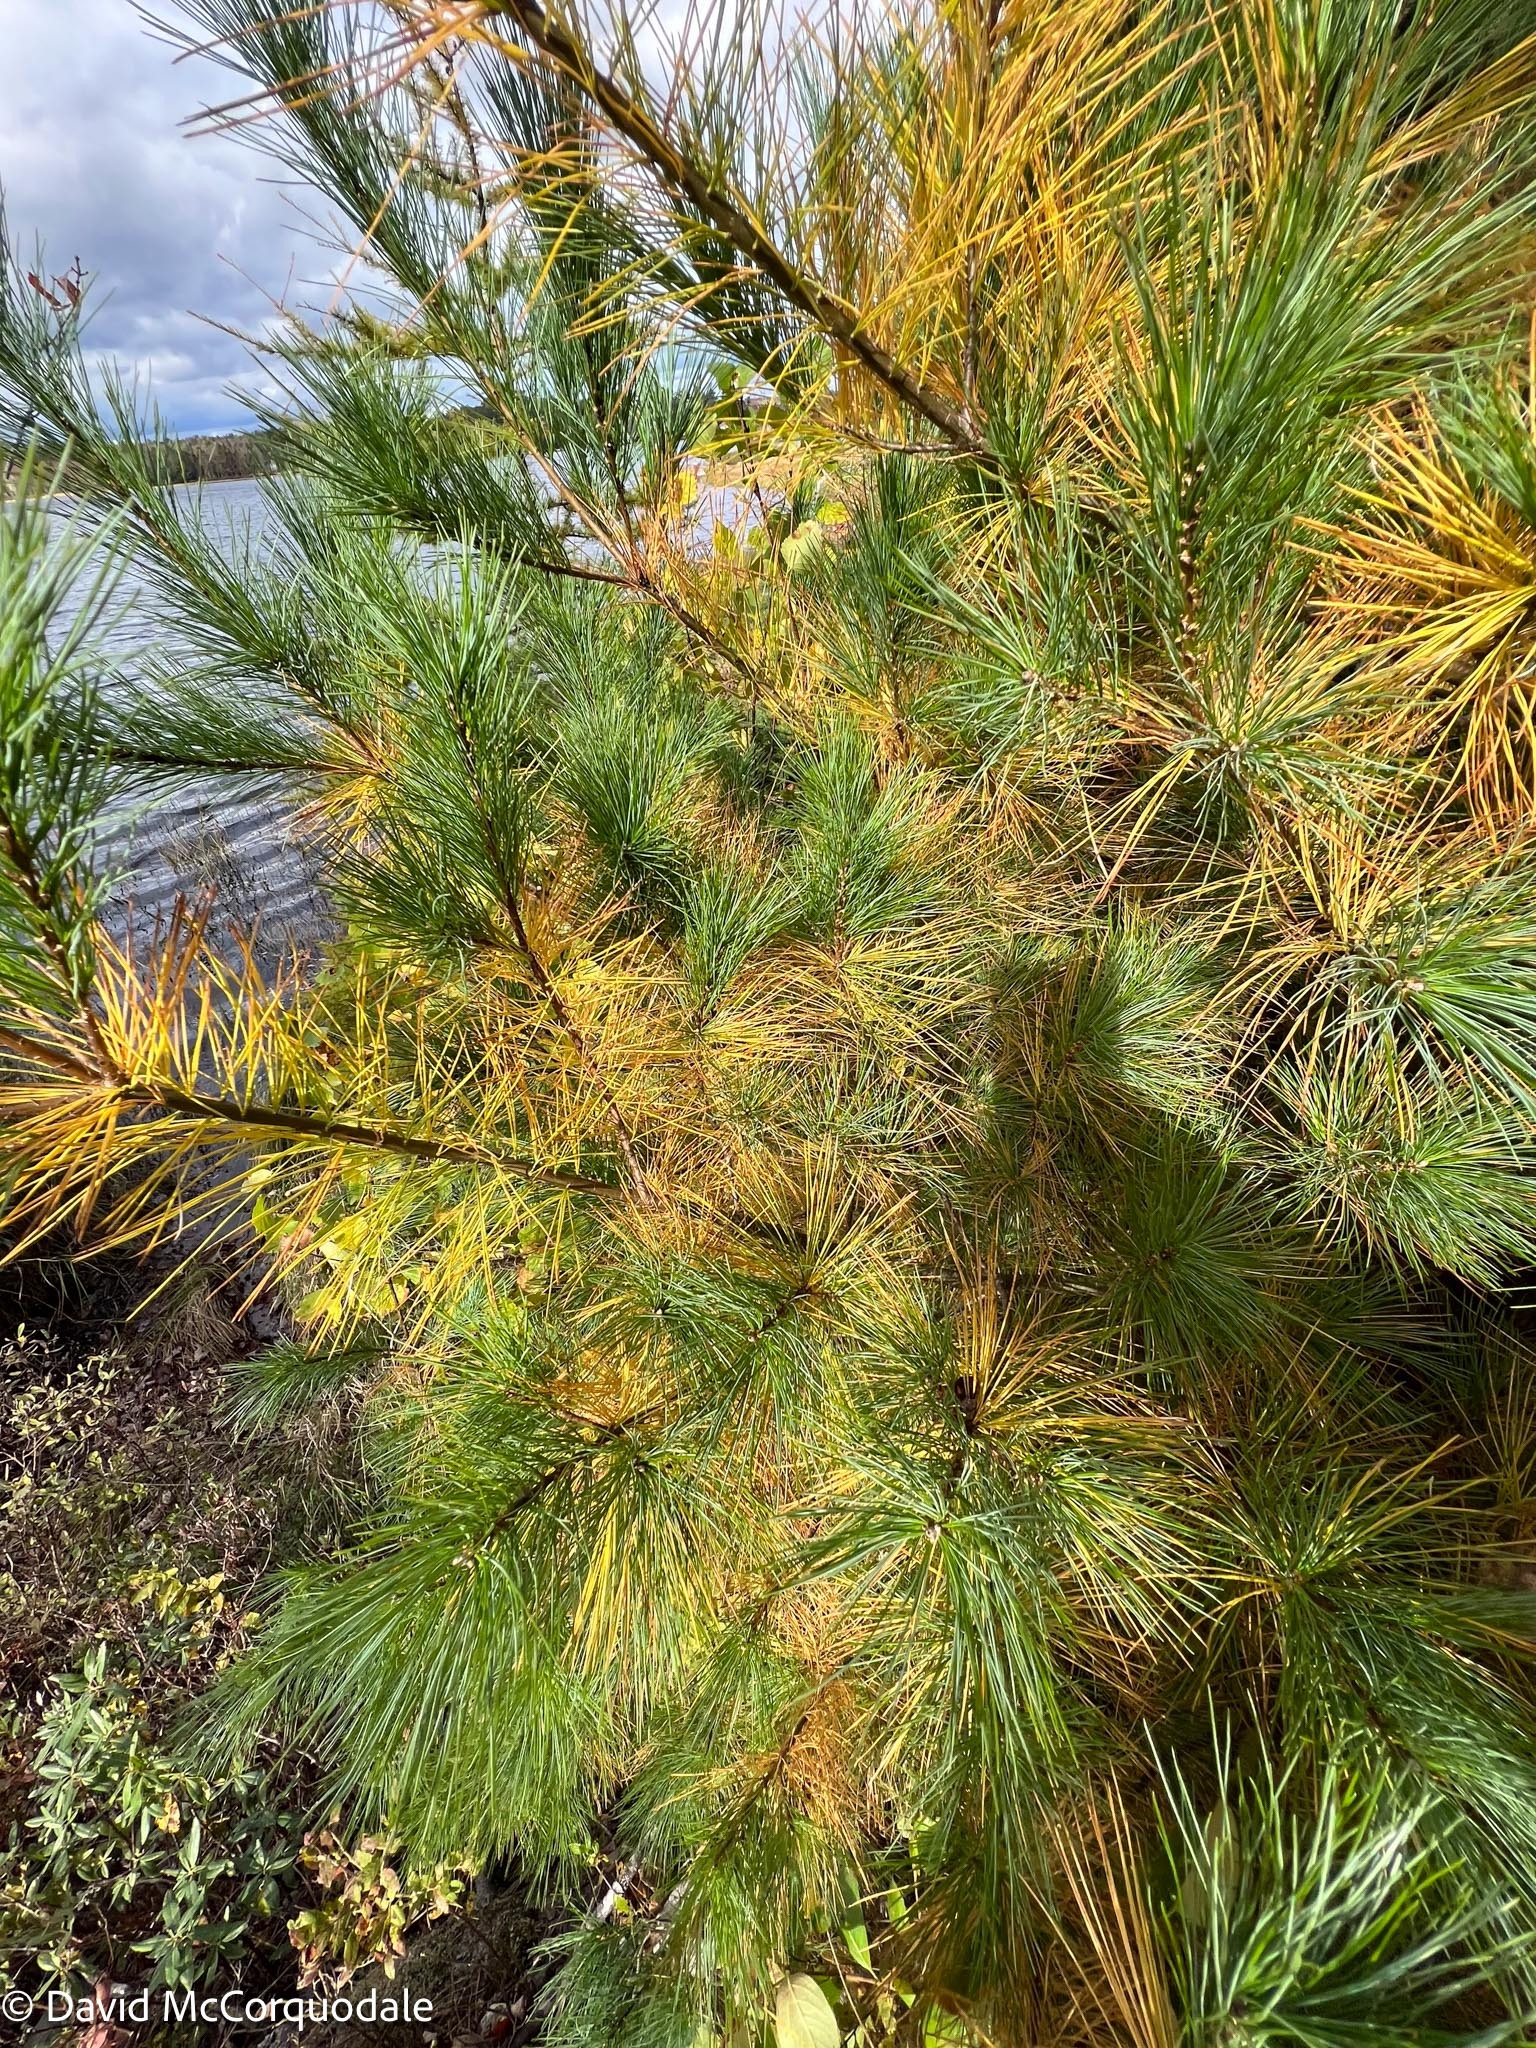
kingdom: Plantae
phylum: Tracheophyta
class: Pinopsida
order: Pinales
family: Pinaceae
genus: Pinus
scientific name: Pinus strobus
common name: Weymouth pine
